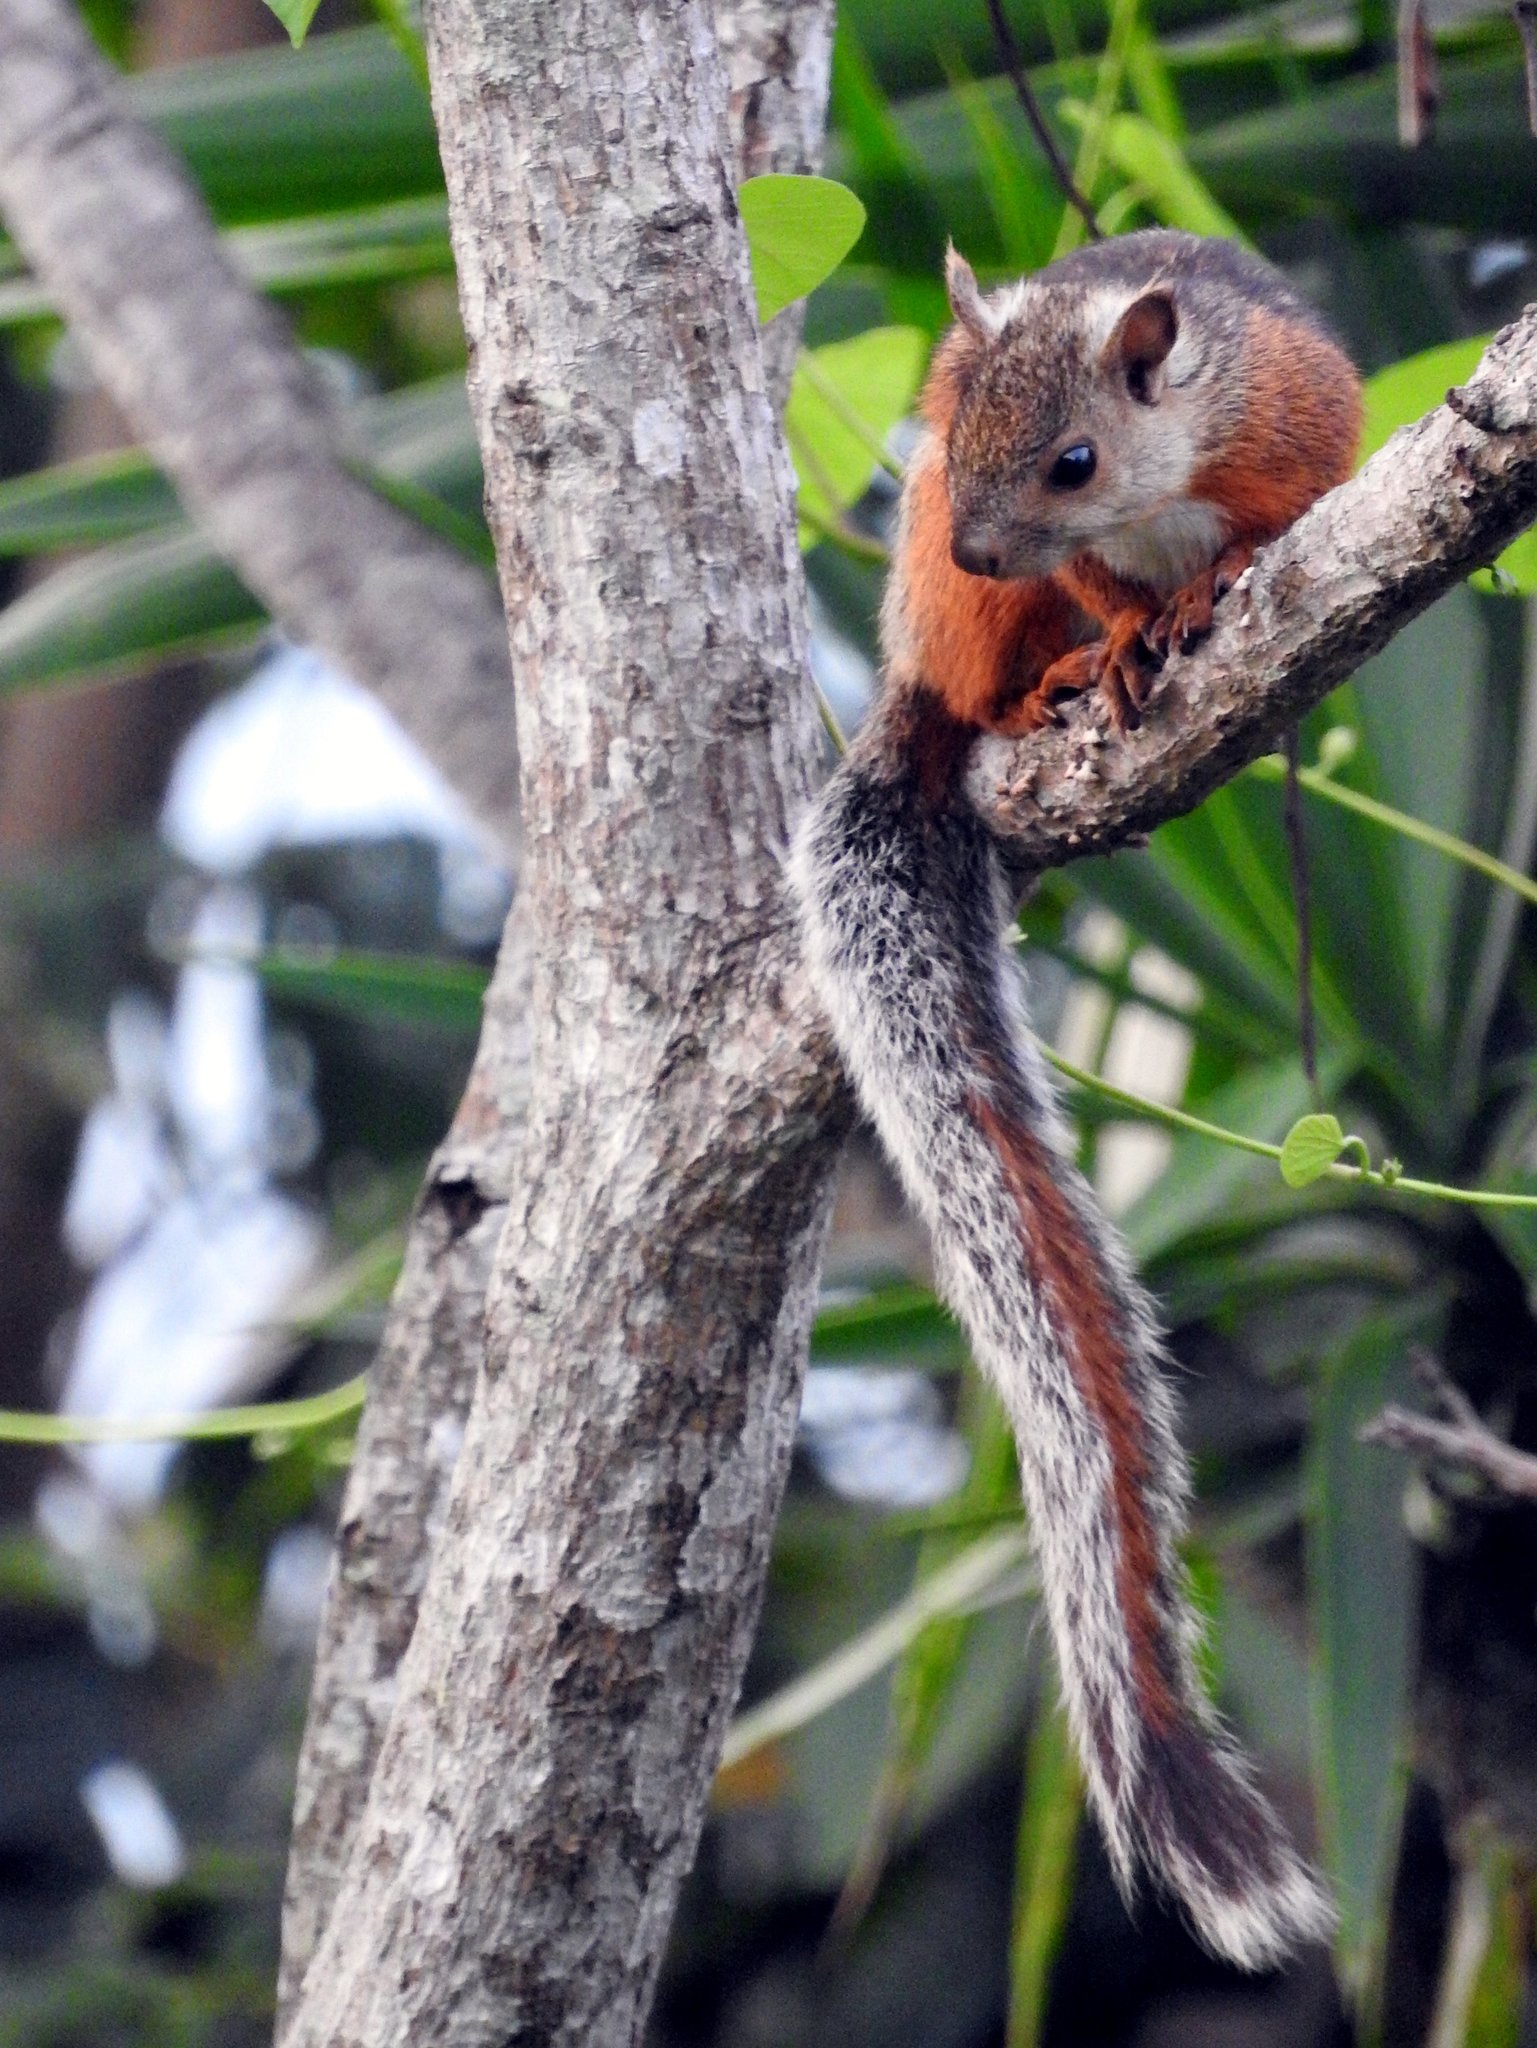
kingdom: Animalia
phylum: Chordata
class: Mammalia
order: Rodentia
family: Sciuridae
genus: Sciurus
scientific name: Sciurus variegatoides
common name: Variegated squirrel
